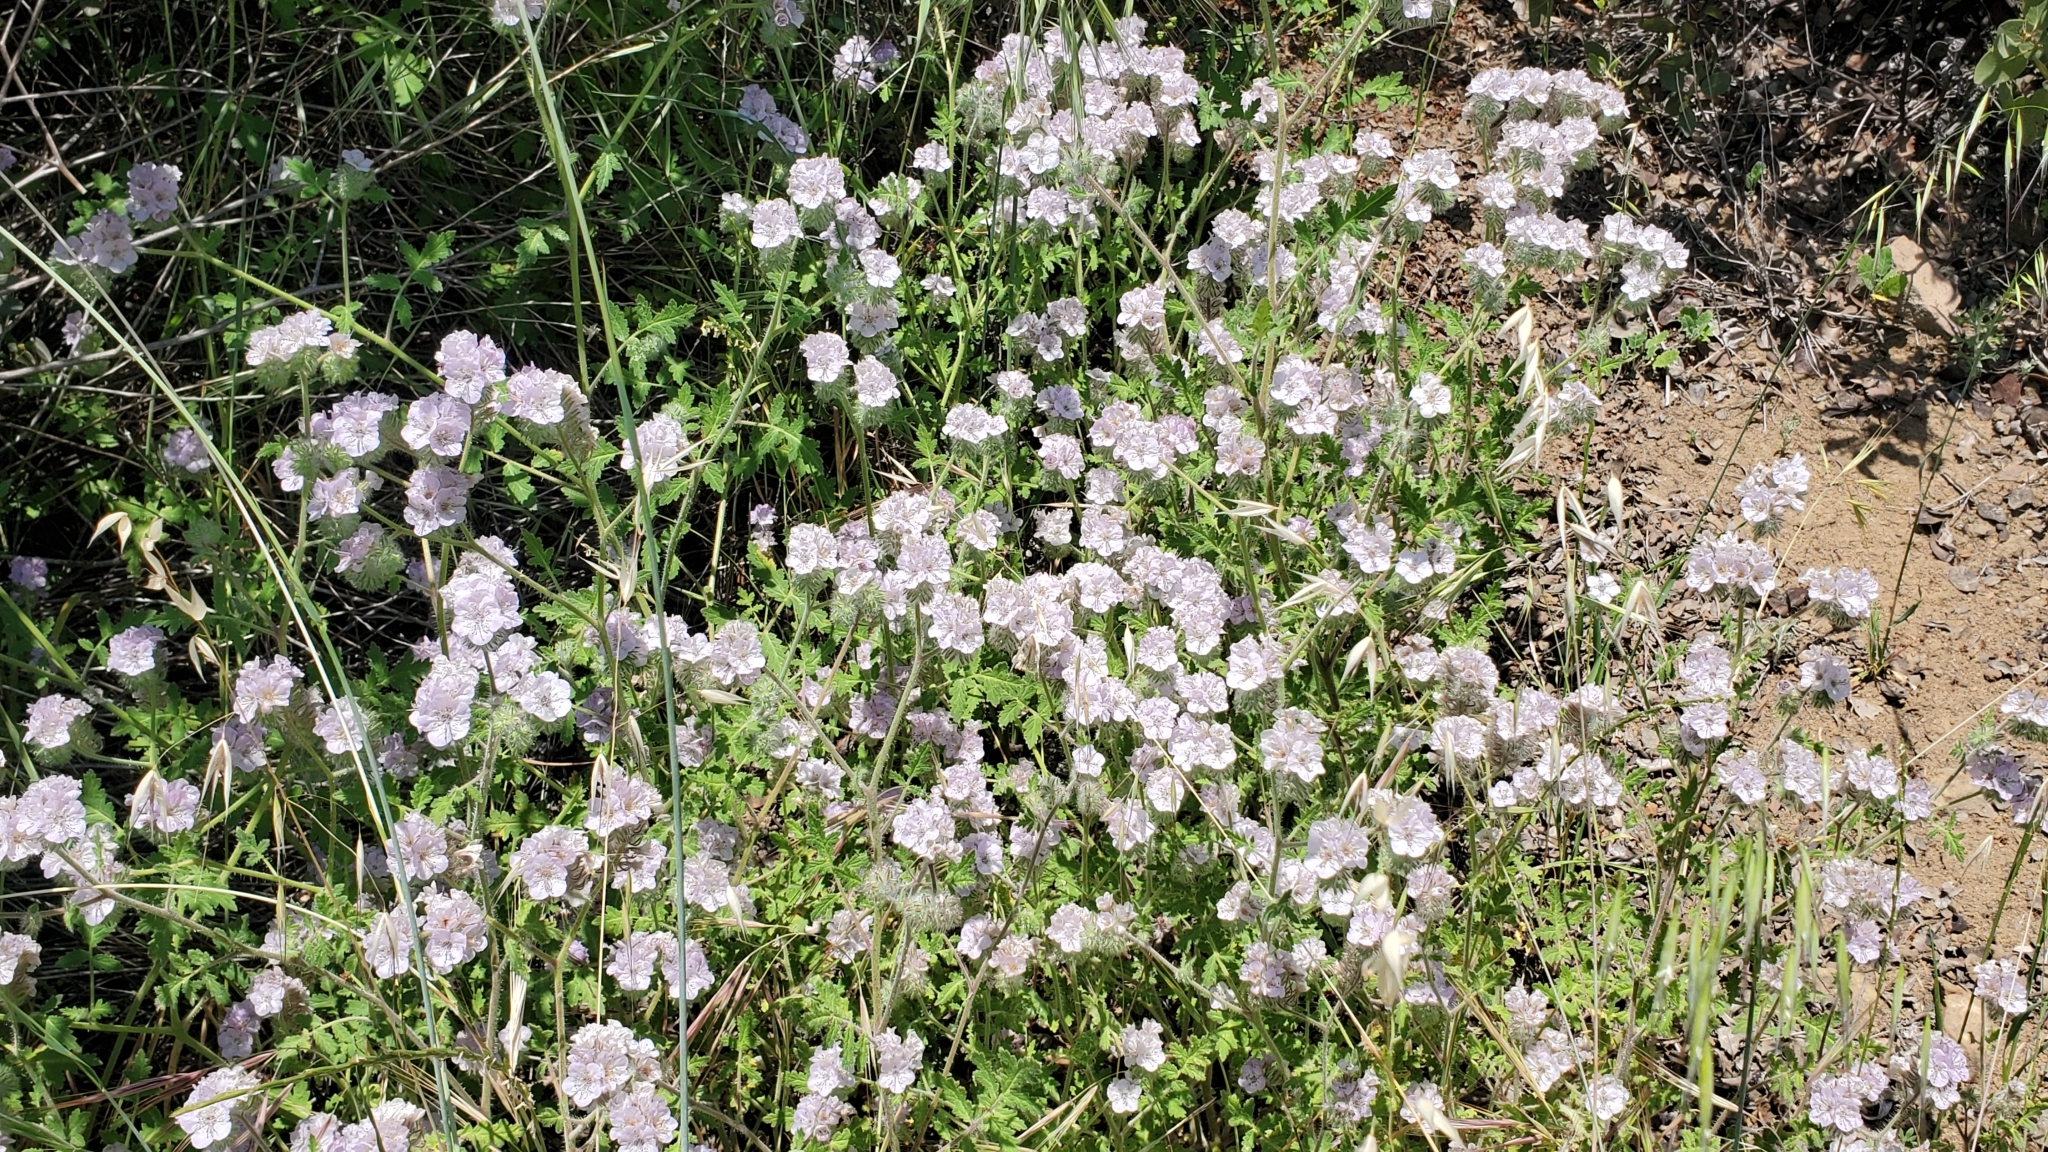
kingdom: Plantae
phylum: Tracheophyta
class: Magnoliopsida
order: Boraginales
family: Hydrophyllaceae
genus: Phacelia
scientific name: Phacelia cicutaria
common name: Caterpillar phacelia
